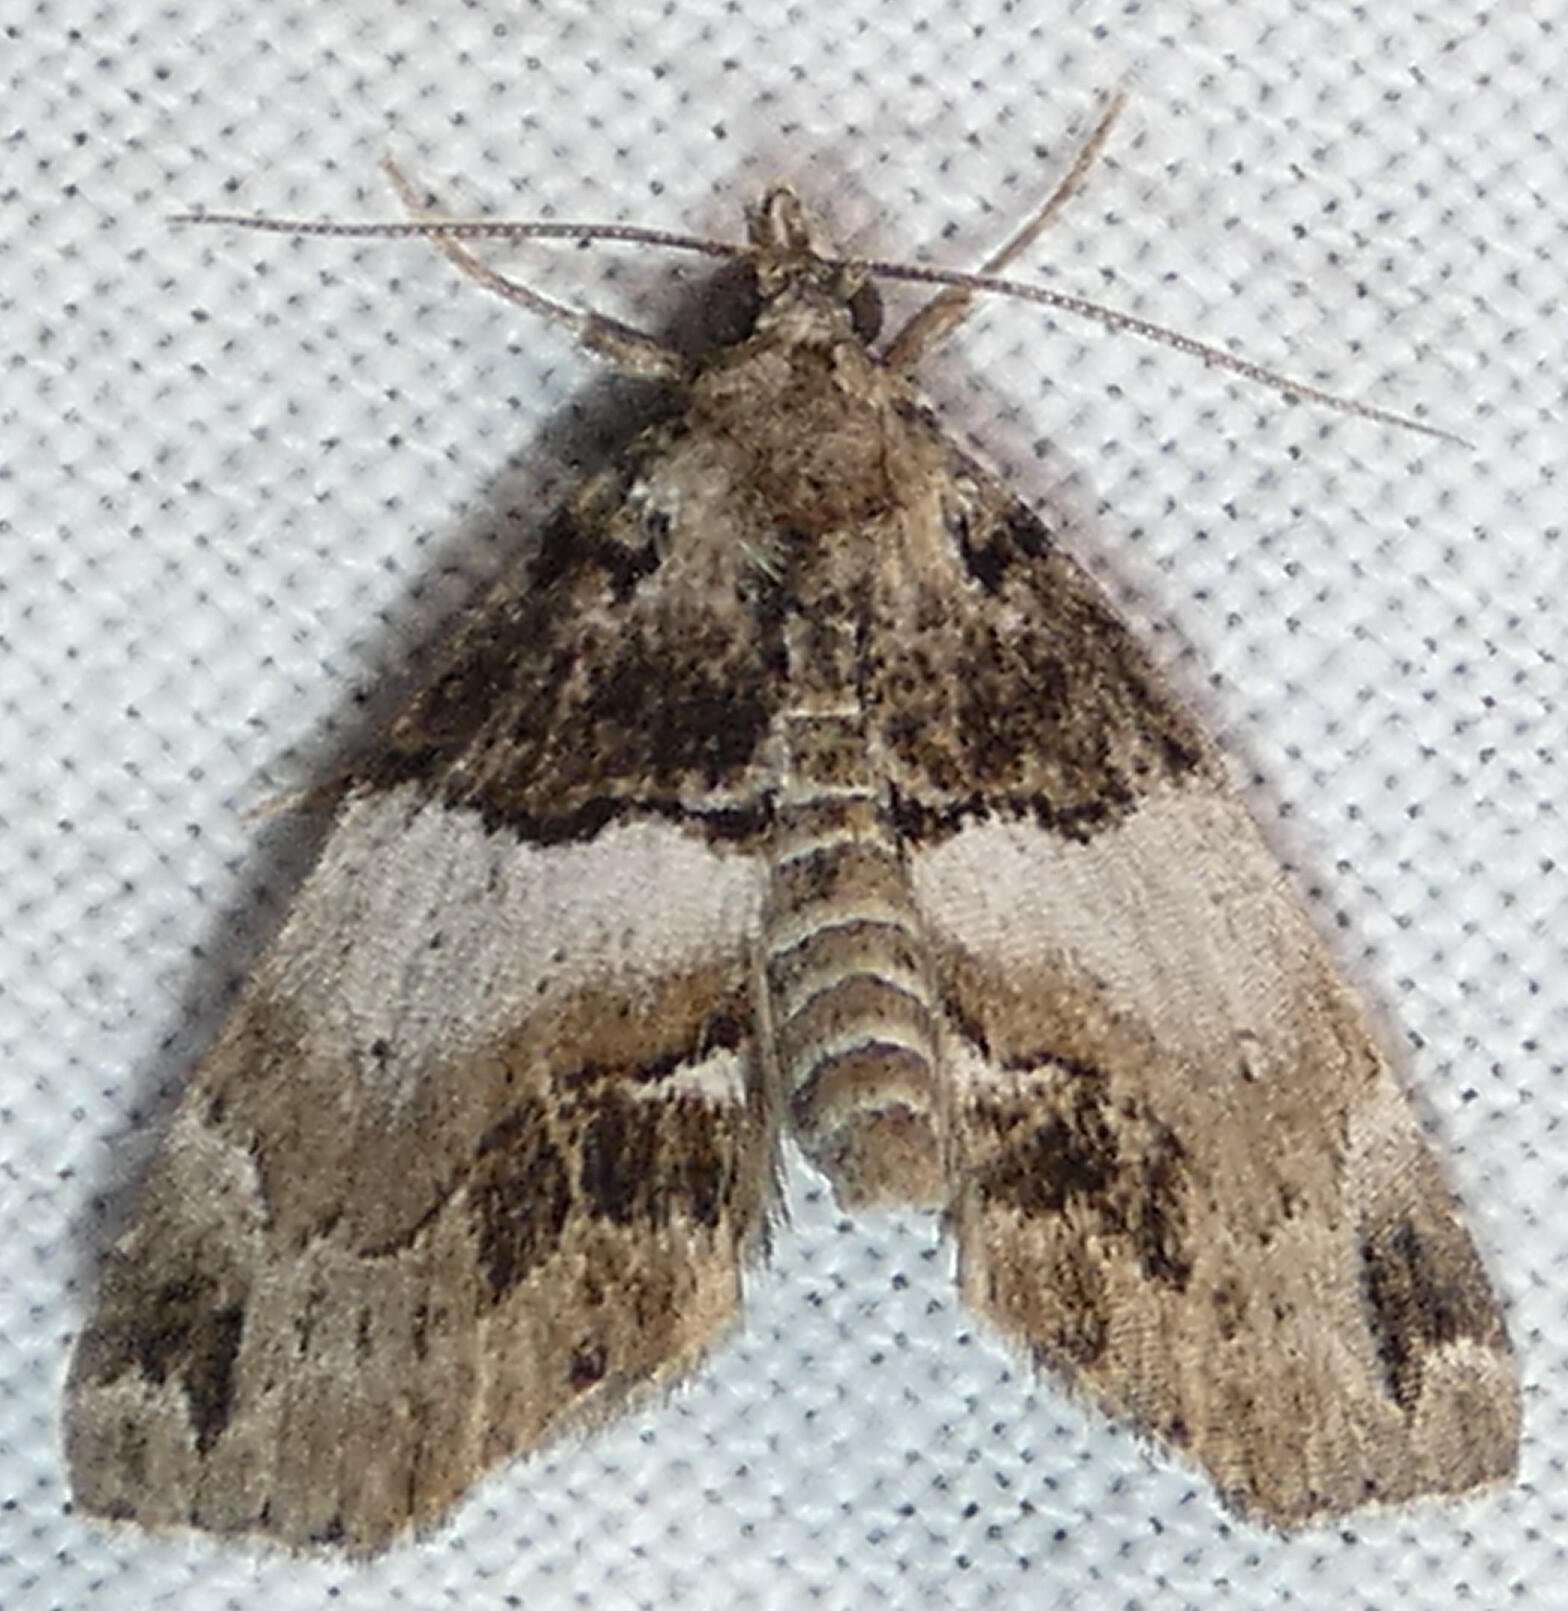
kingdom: Animalia
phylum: Arthropoda
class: Insecta
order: Lepidoptera
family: Erebidae
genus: Cutina
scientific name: Cutina distincta
